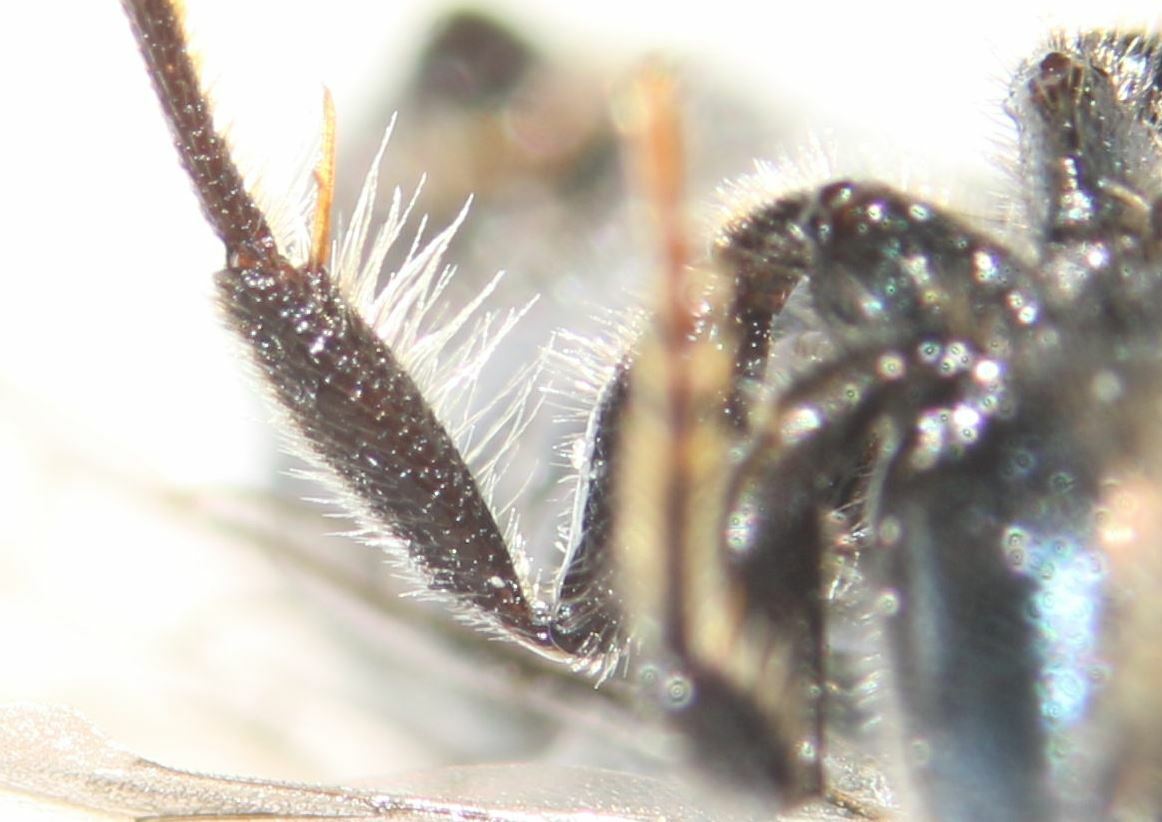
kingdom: Animalia
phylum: Arthropoda
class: Insecta
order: Hymenoptera
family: Apidae
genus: Ceratina
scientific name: Ceratina chalybea
